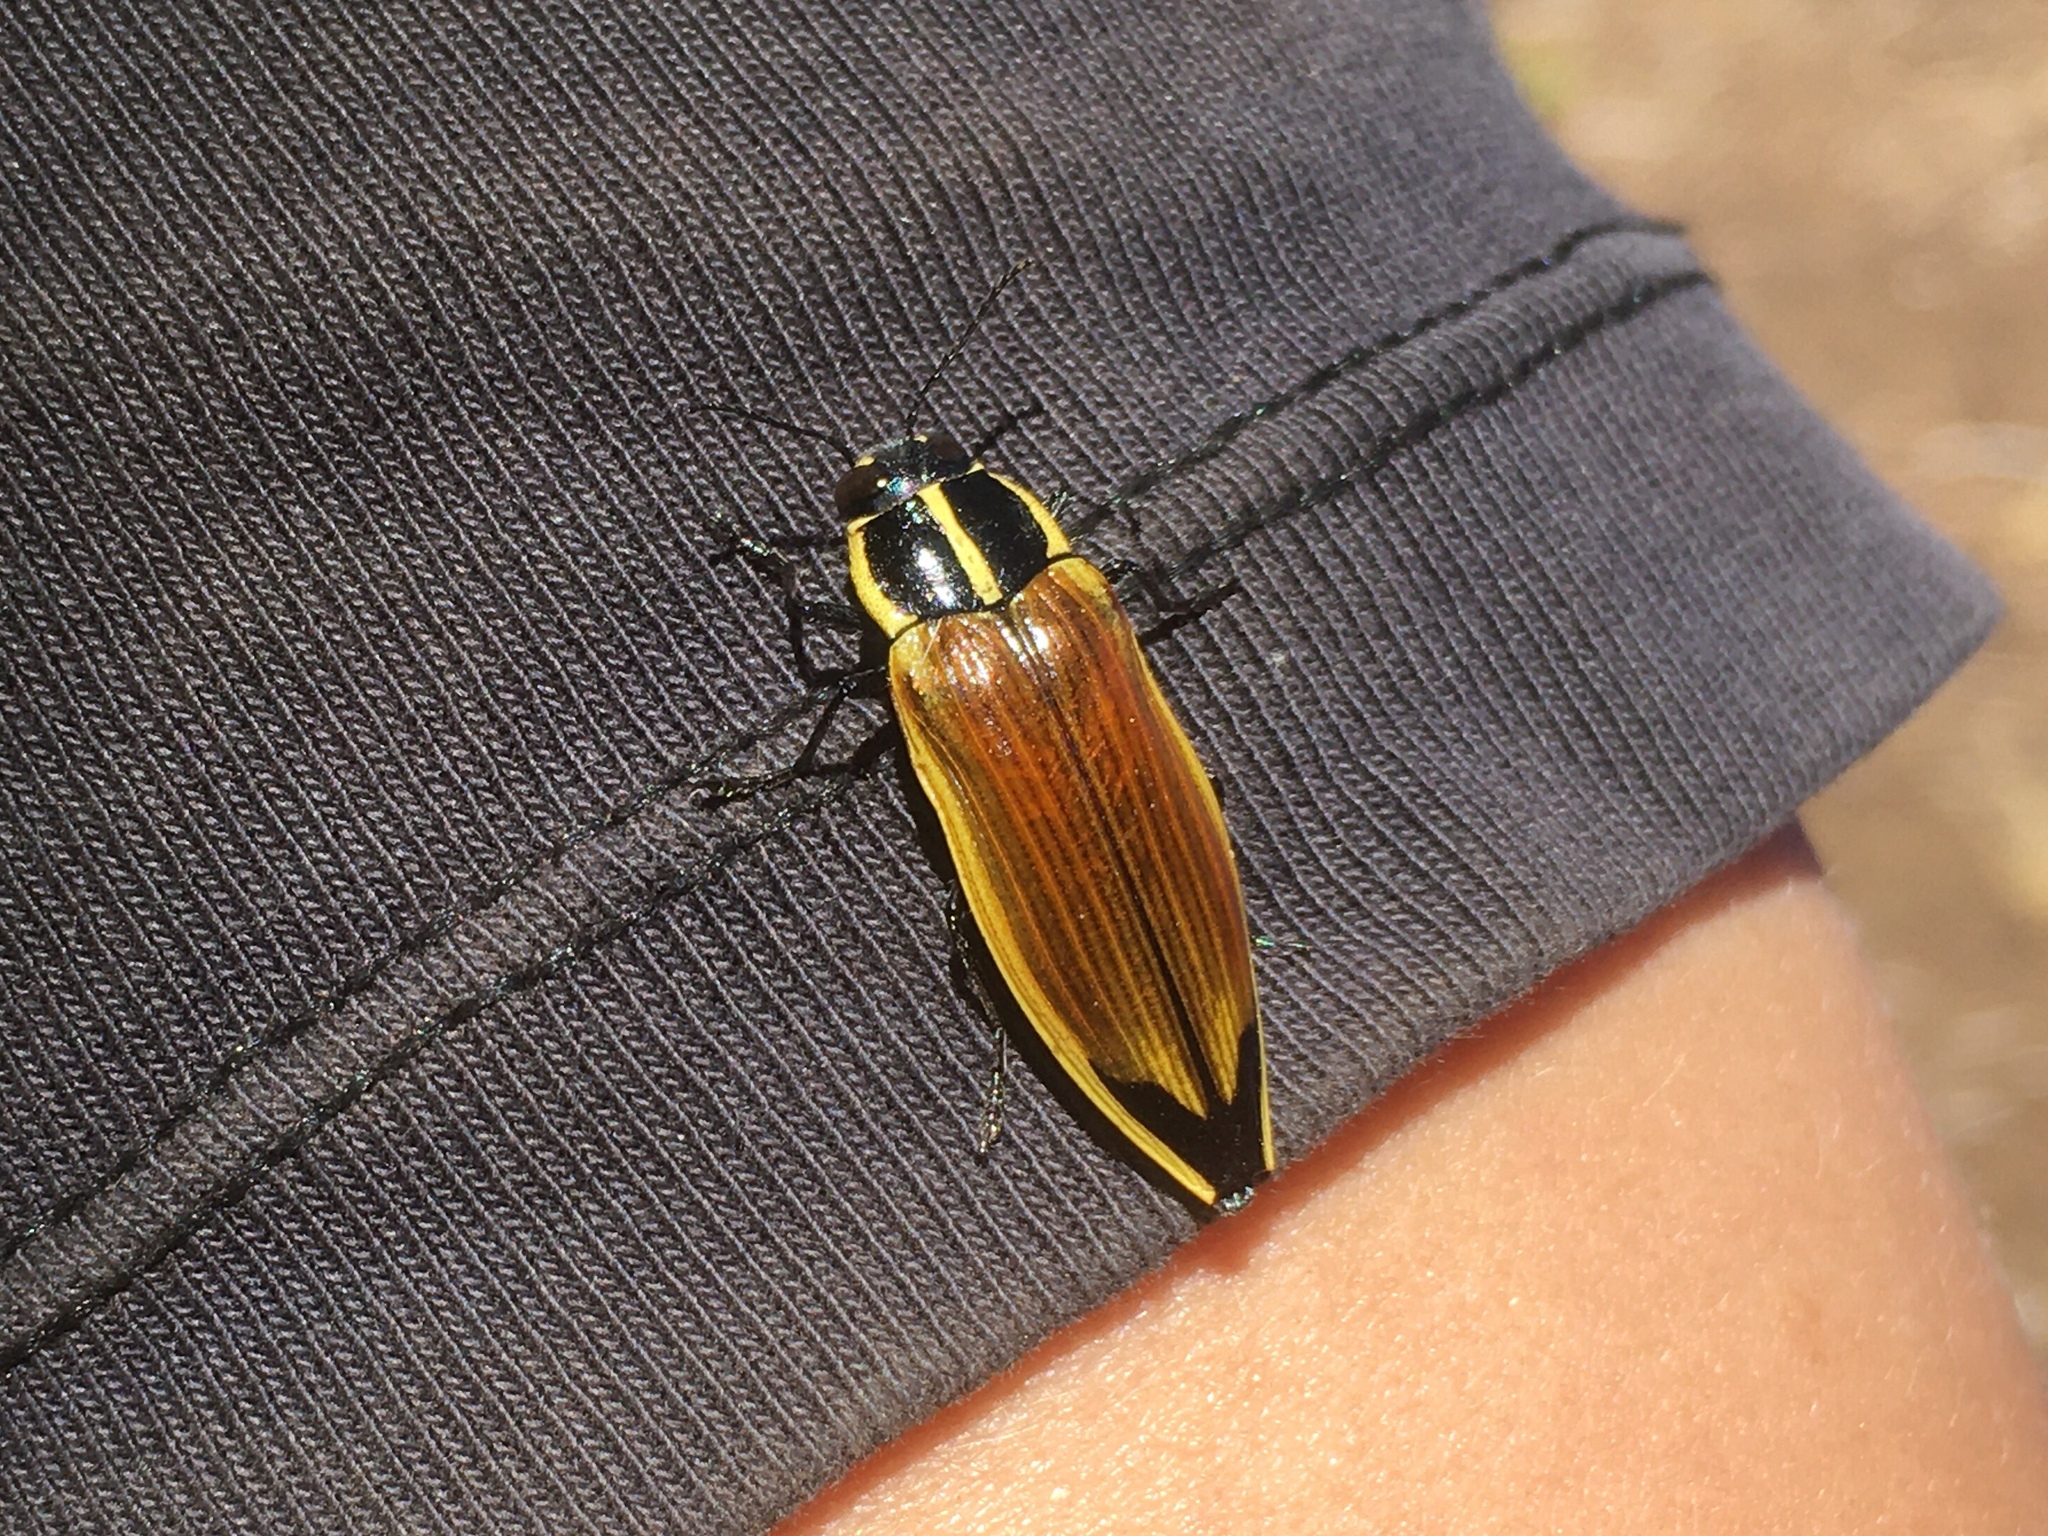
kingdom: Animalia
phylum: Arthropoda
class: Insecta
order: Coleoptera
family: Buprestidae
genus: Epistomentis
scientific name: Epistomentis pictus
